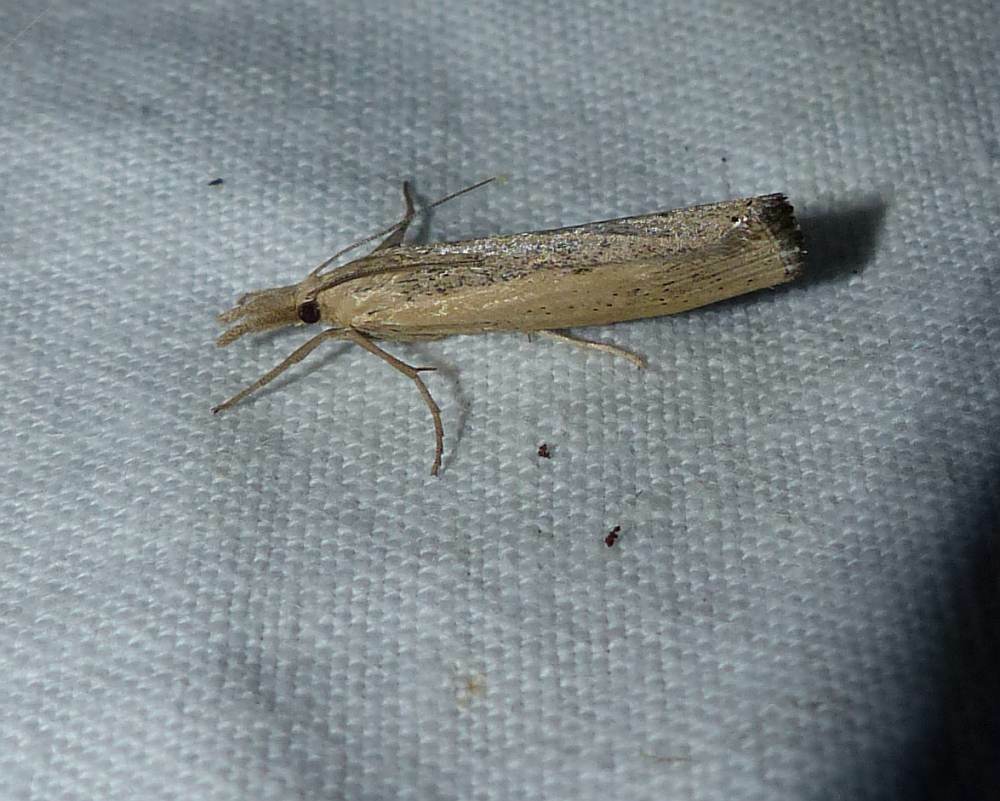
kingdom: Animalia
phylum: Arthropoda
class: Insecta
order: Lepidoptera
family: Crambidae
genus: Pediasia
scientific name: Pediasia trisecta
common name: Sod webworm moth
